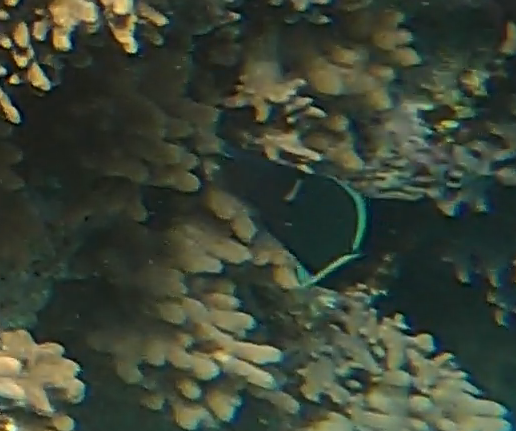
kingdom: Animalia
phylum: Chordata
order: Perciformes
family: Labridae
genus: Gomphosus
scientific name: Gomphosus klunzingeri
